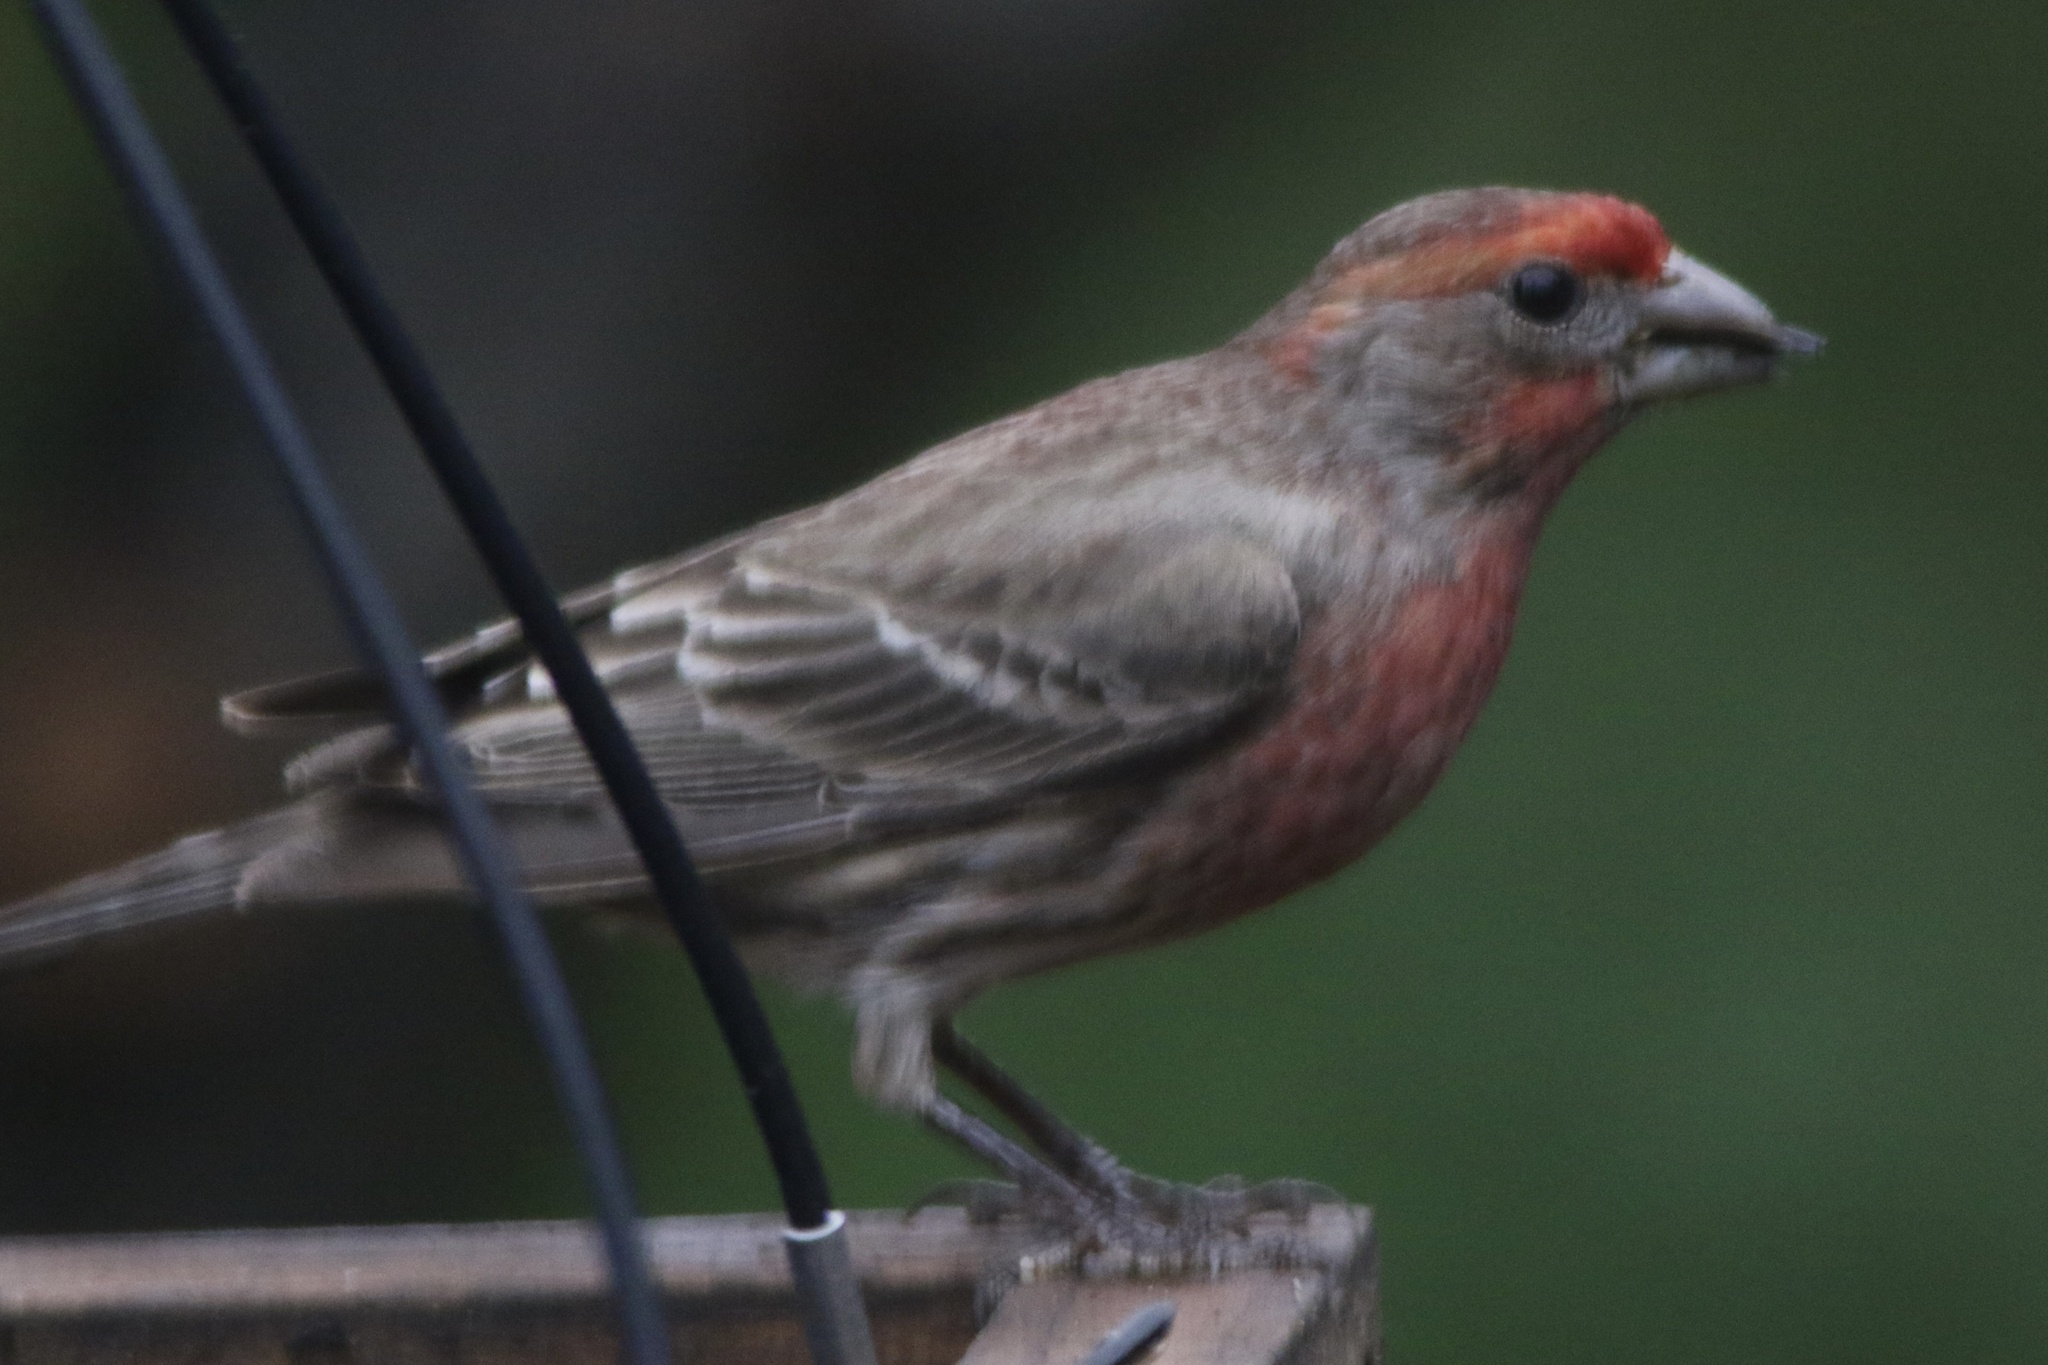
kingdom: Animalia
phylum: Chordata
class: Aves
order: Passeriformes
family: Fringillidae
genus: Haemorhous
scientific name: Haemorhous mexicanus
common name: House finch
